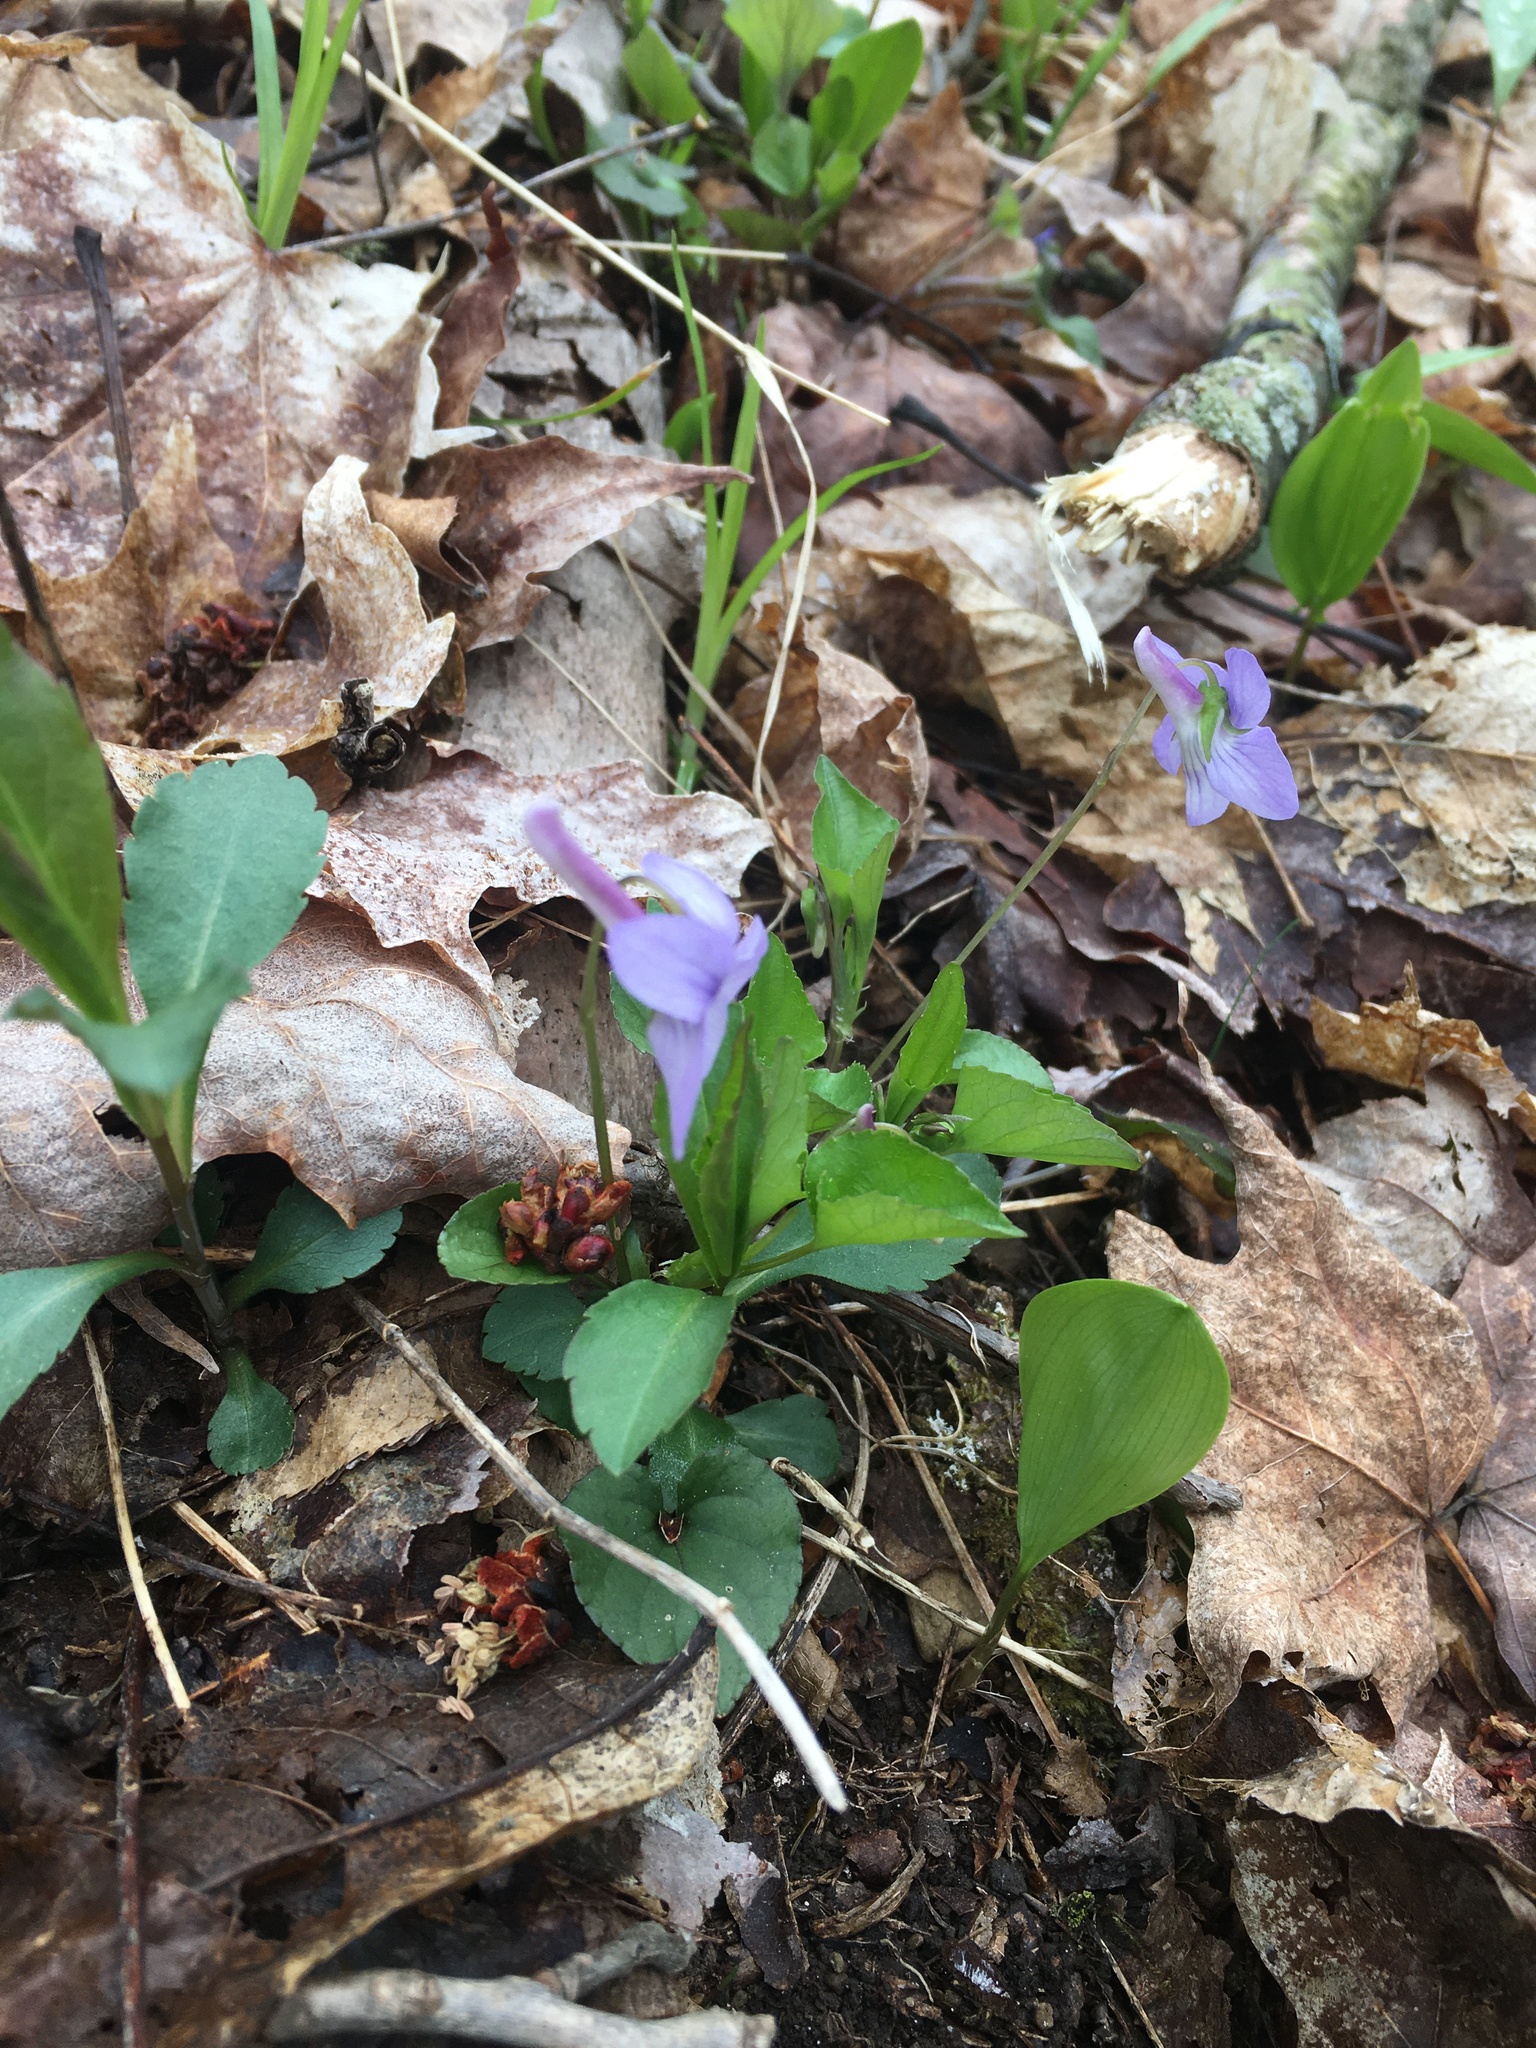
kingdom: Plantae
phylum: Tracheophyta
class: Magnoliopsida
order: Malpighiales
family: Violaceae
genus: Viola
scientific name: Viola rostrata
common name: Long-spur violet
